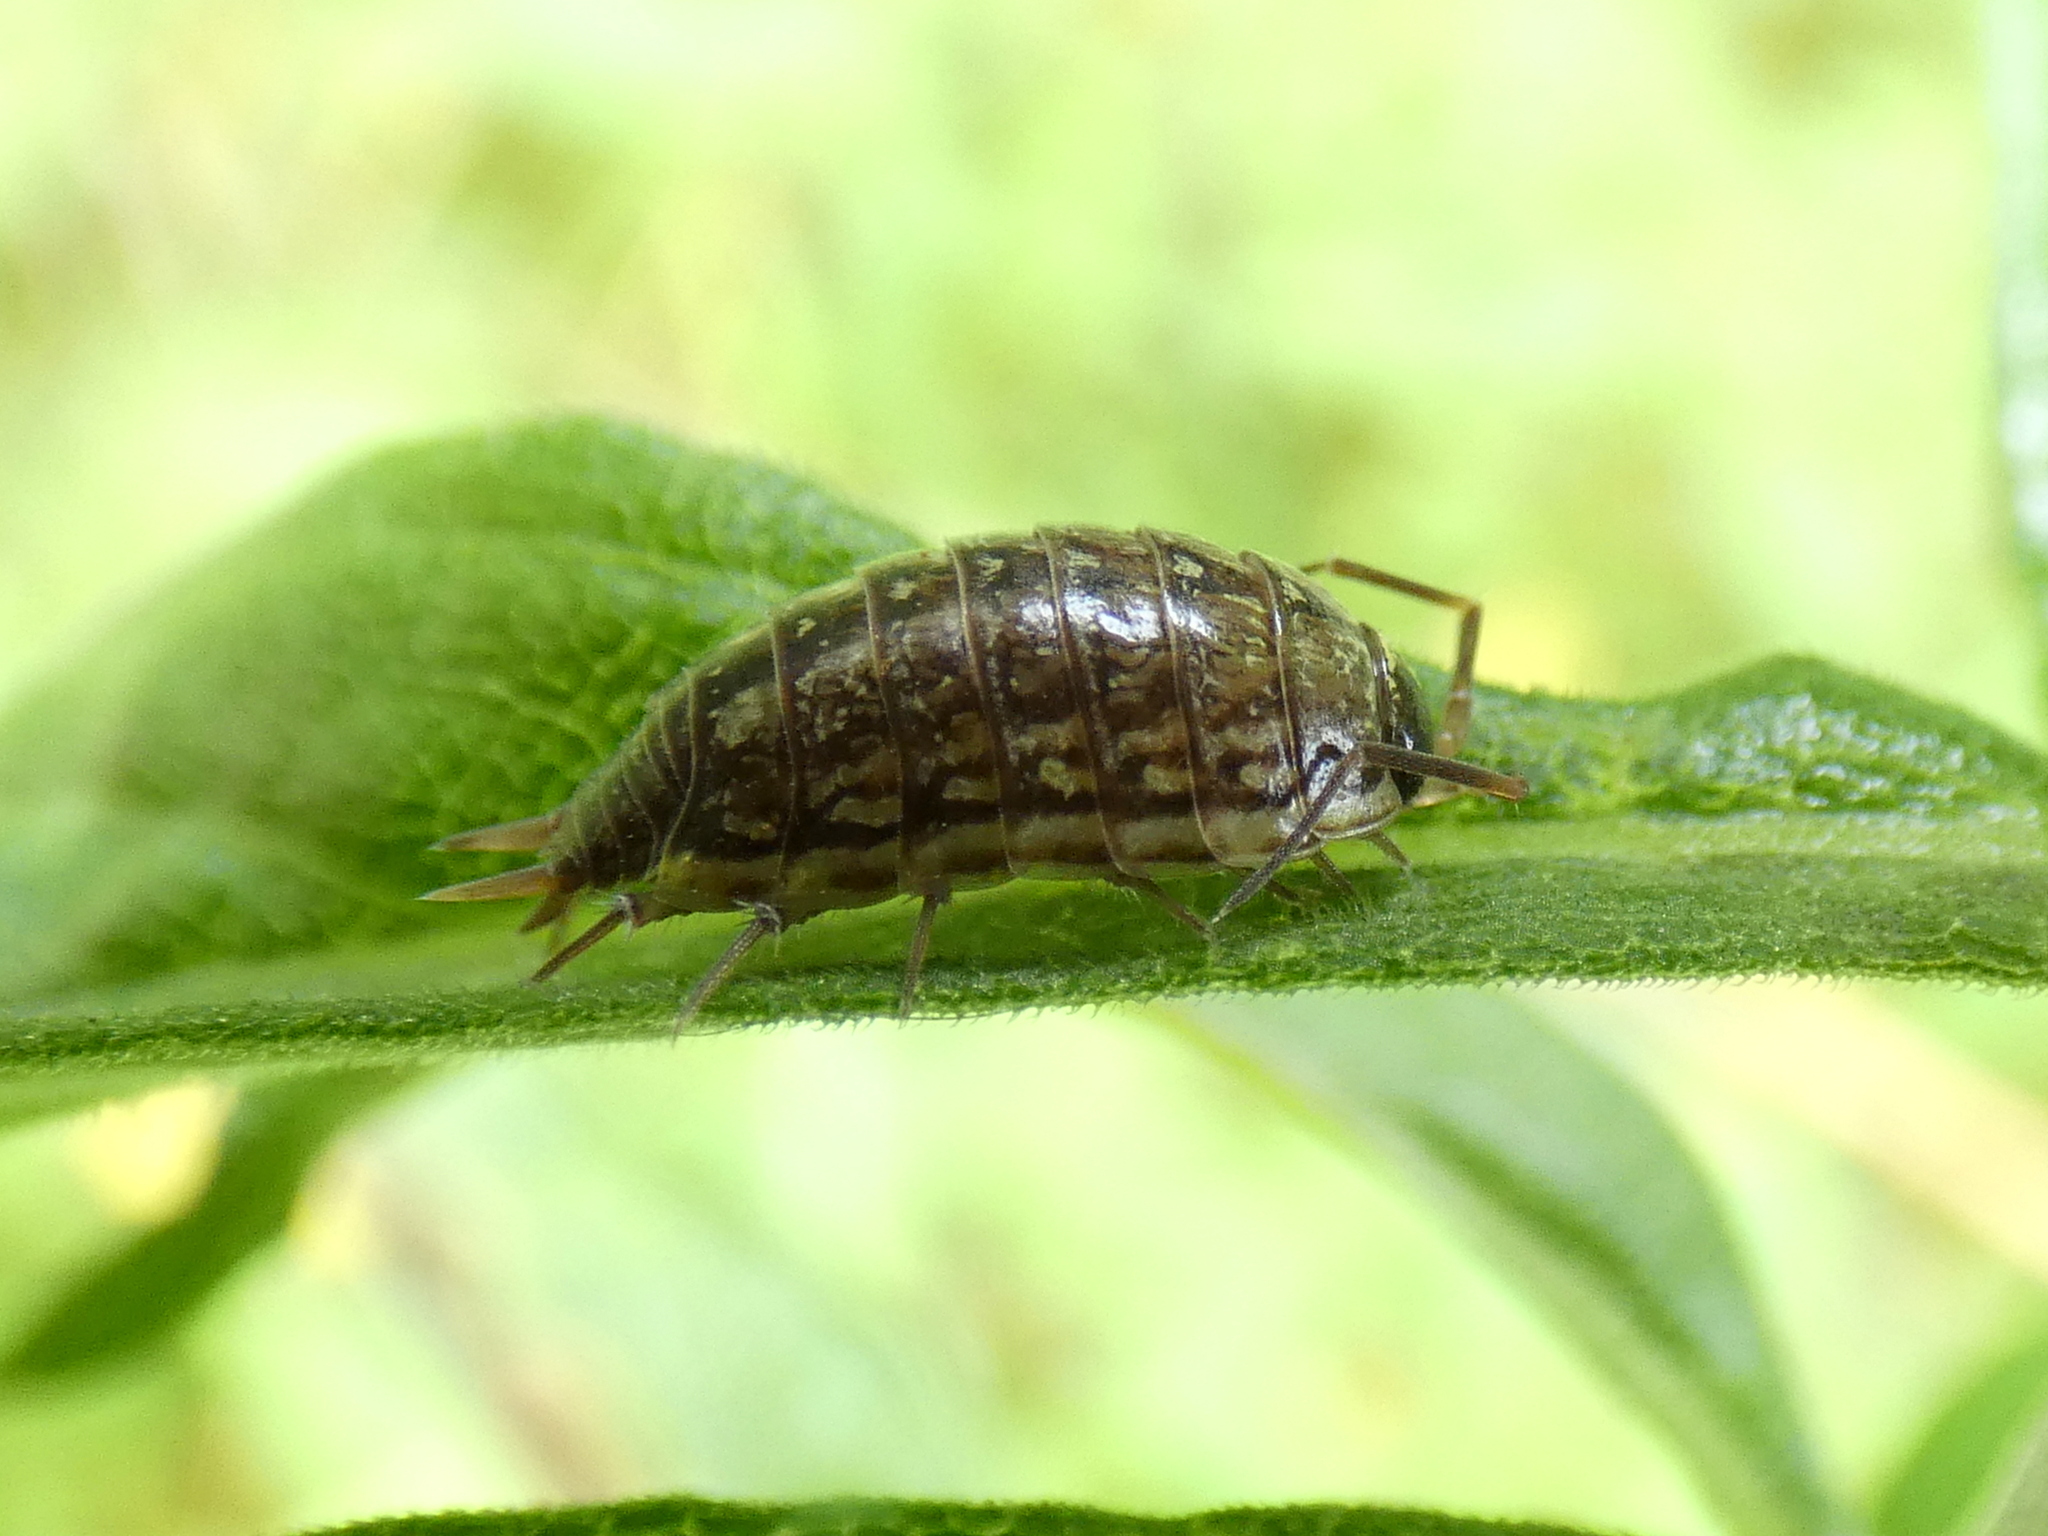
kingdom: Animalia
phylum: Arthropoda
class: Malacostraca
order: Isopoda
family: Philosciidae
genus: Philoscia
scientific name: Philoscia muscorum
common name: Common striped woodlouse
